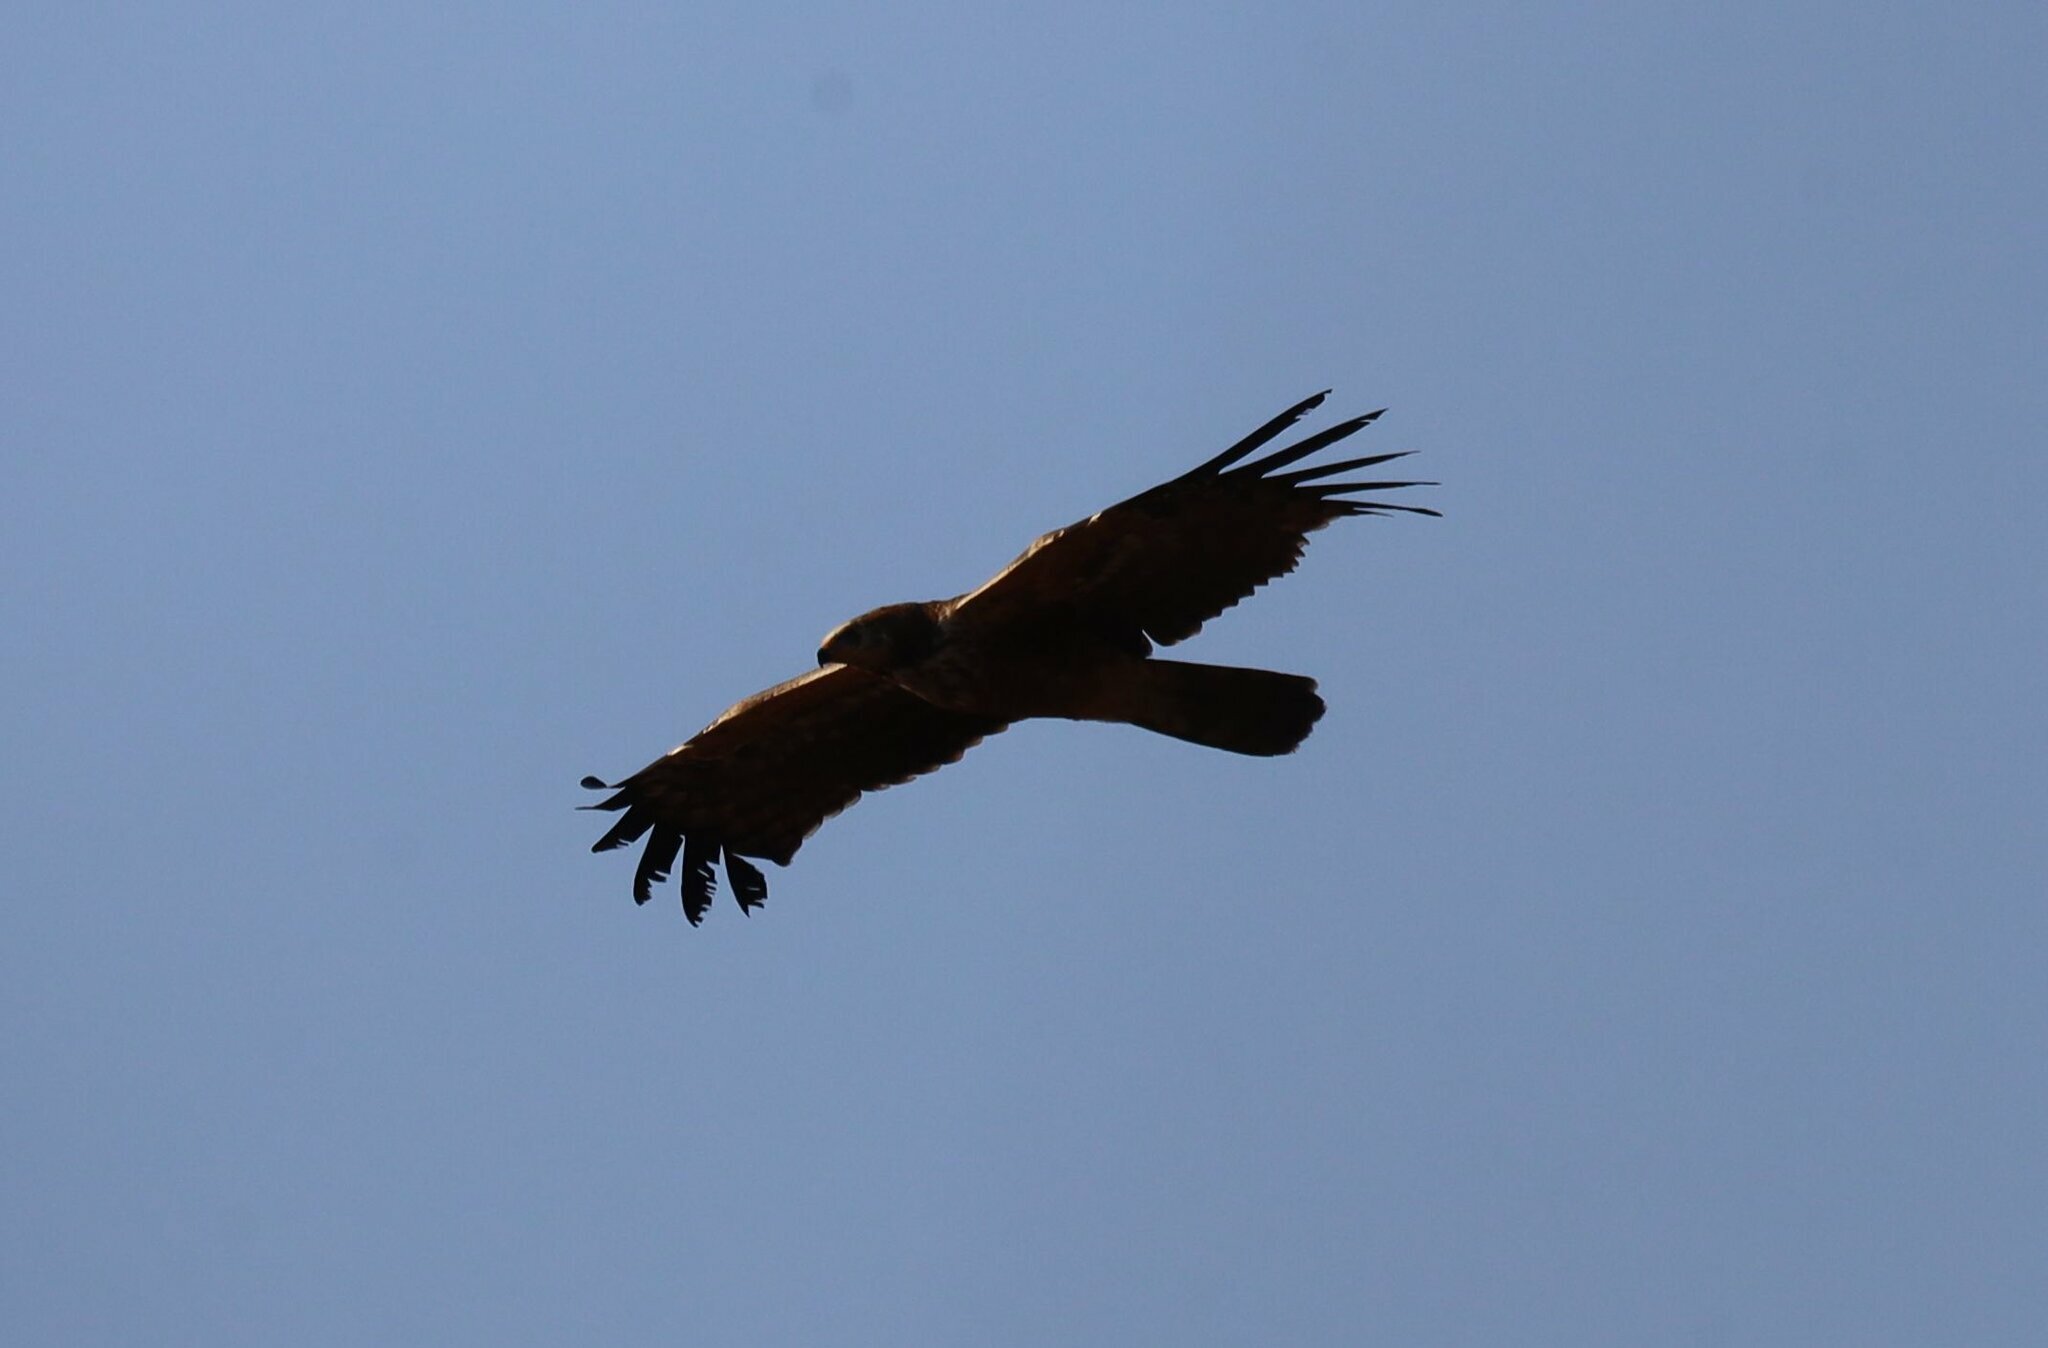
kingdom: Animalia
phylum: Chordata
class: Aves
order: Accipitriformes
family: Accipitridae
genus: Polyboroides
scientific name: Polyboroides typus
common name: African harrier-hawk
